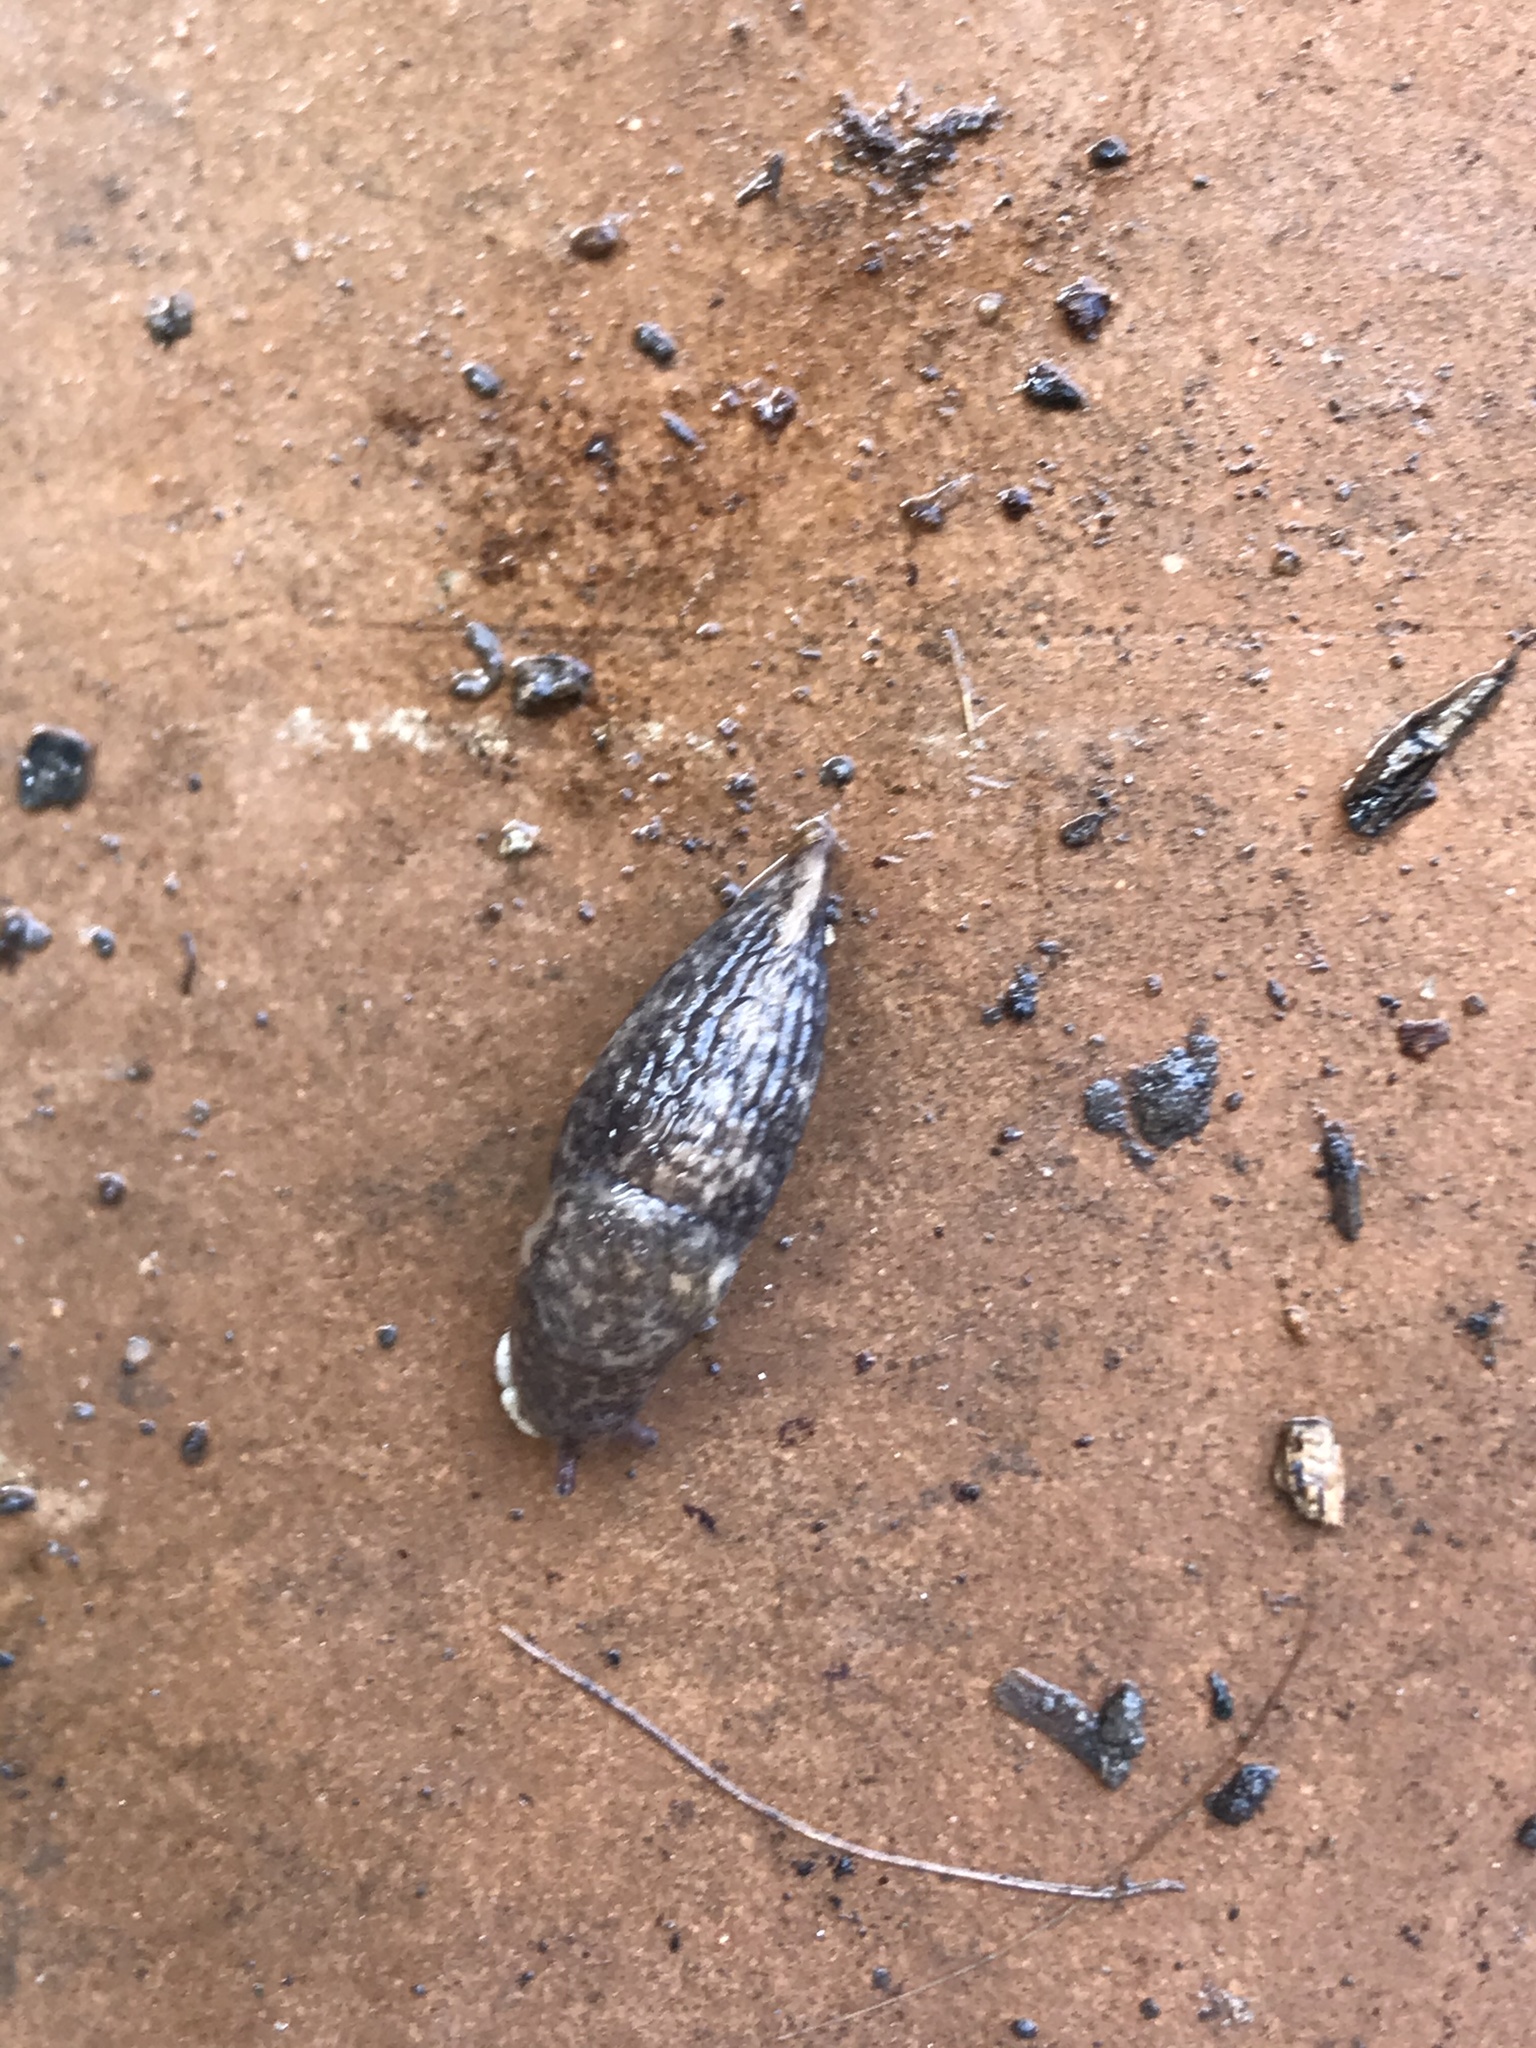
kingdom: Animalia
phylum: Mollusca
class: Gastropoda
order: Stylommatophora
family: Agriolimacidae
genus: Deroceras
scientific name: Deroceras reticulatum
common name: Gray field slug
